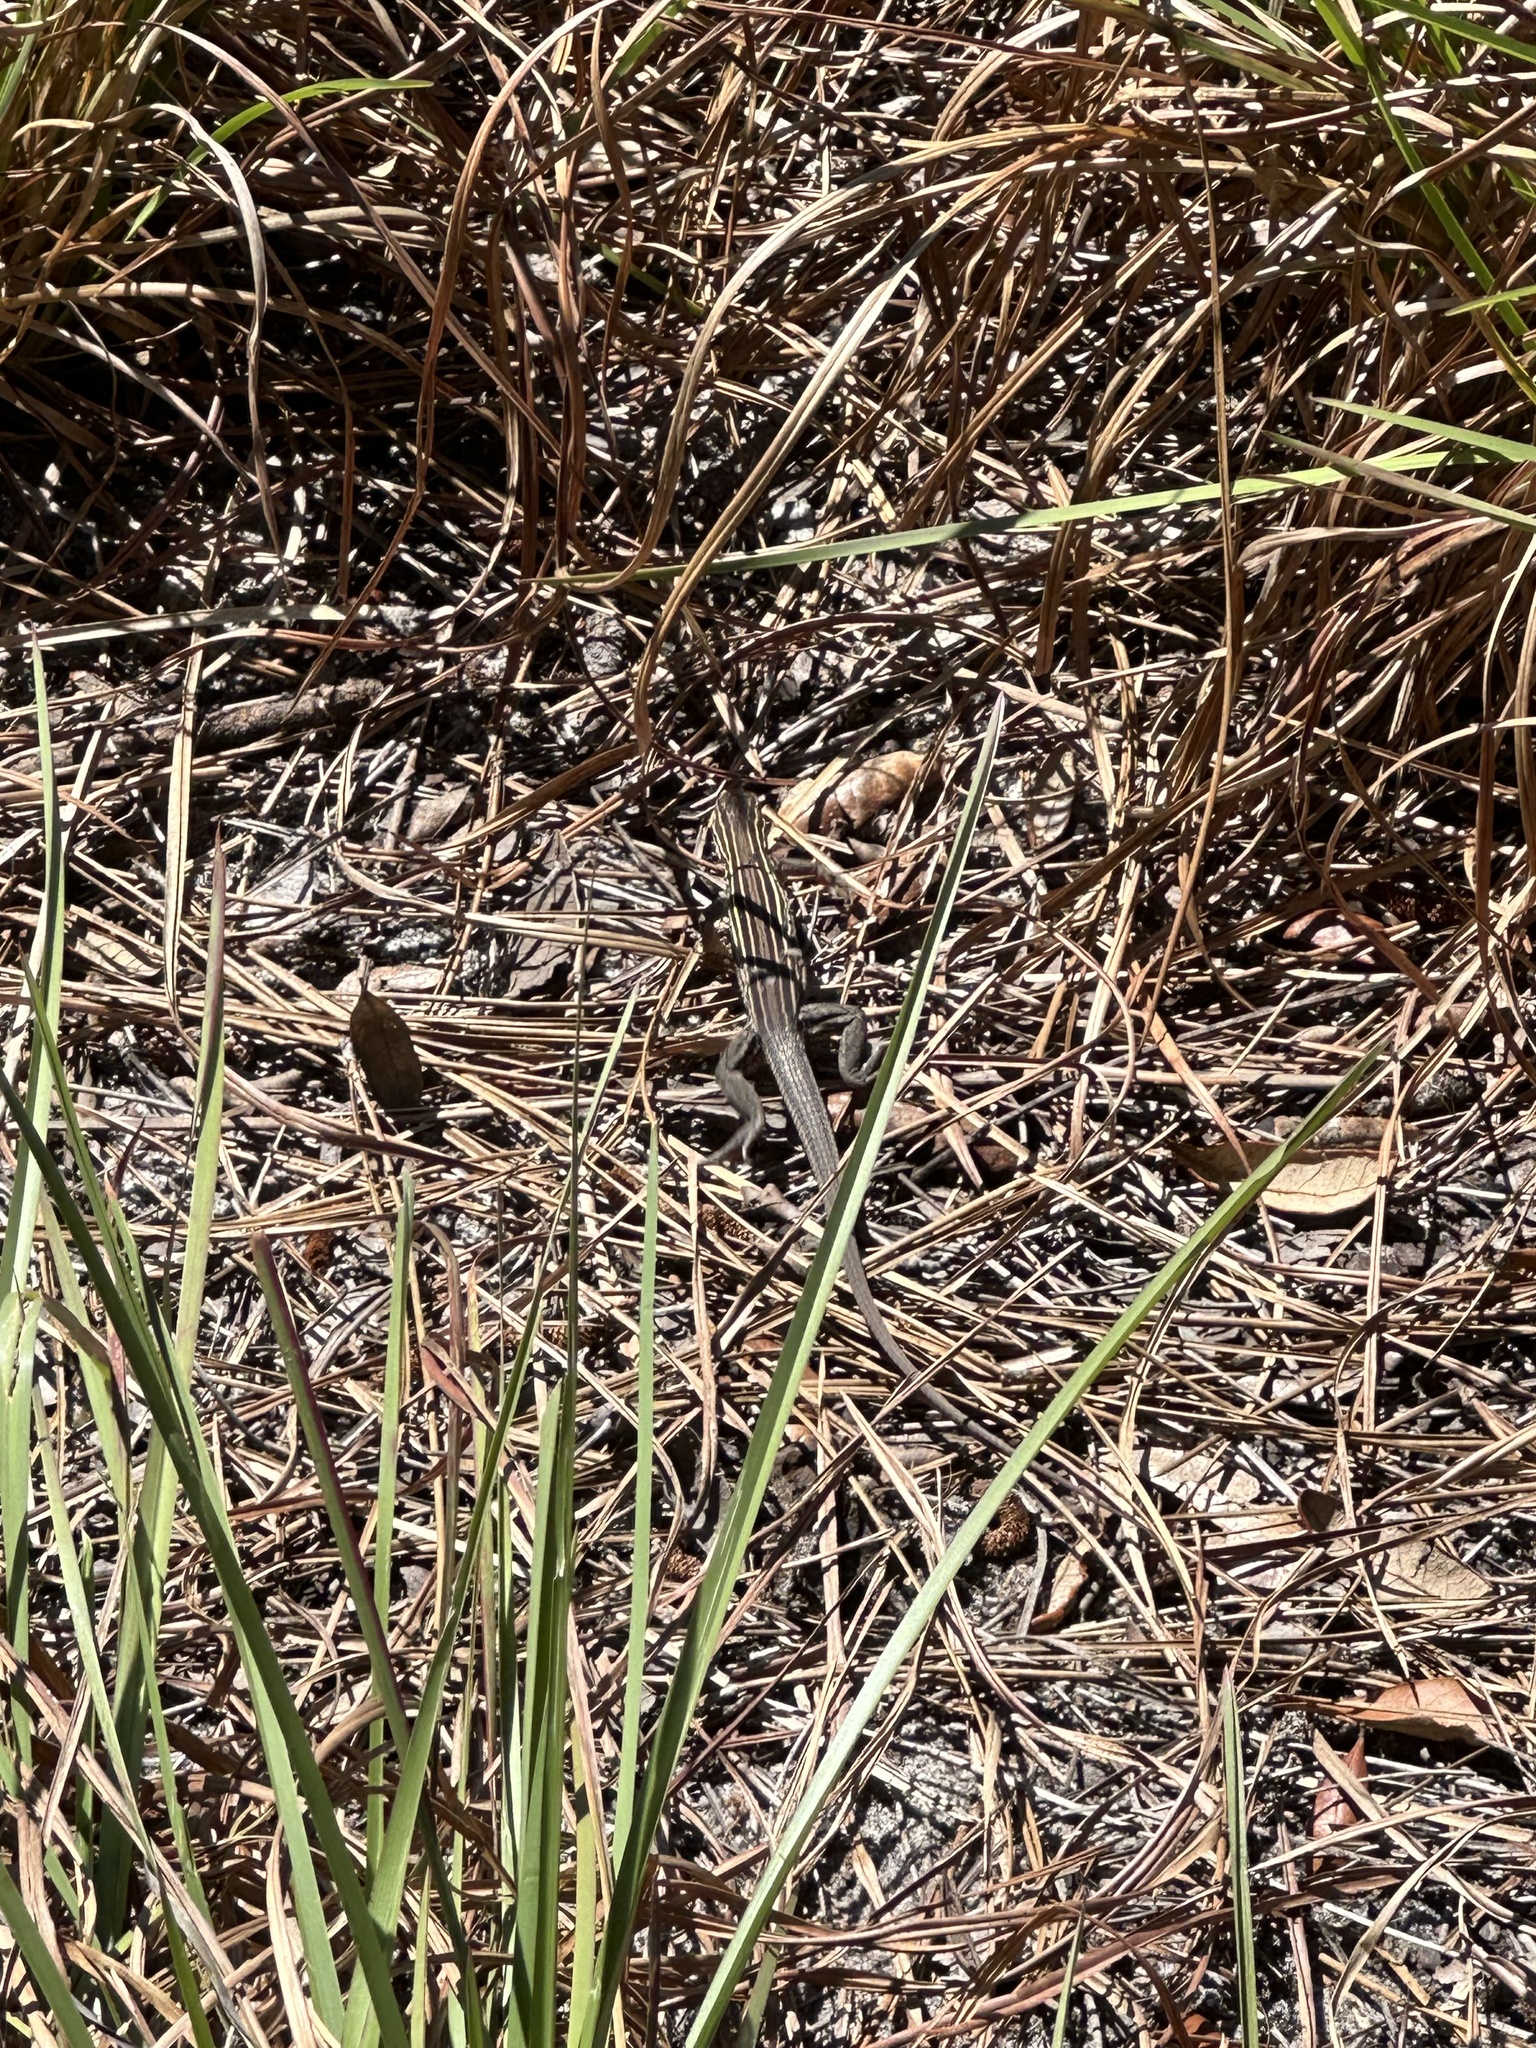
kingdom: Animalia
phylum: Chordata
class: Squamata
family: Teiidae
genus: Aspidoscelis
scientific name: Aspidoscelis sexlineatus
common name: Six-lined racerunner
